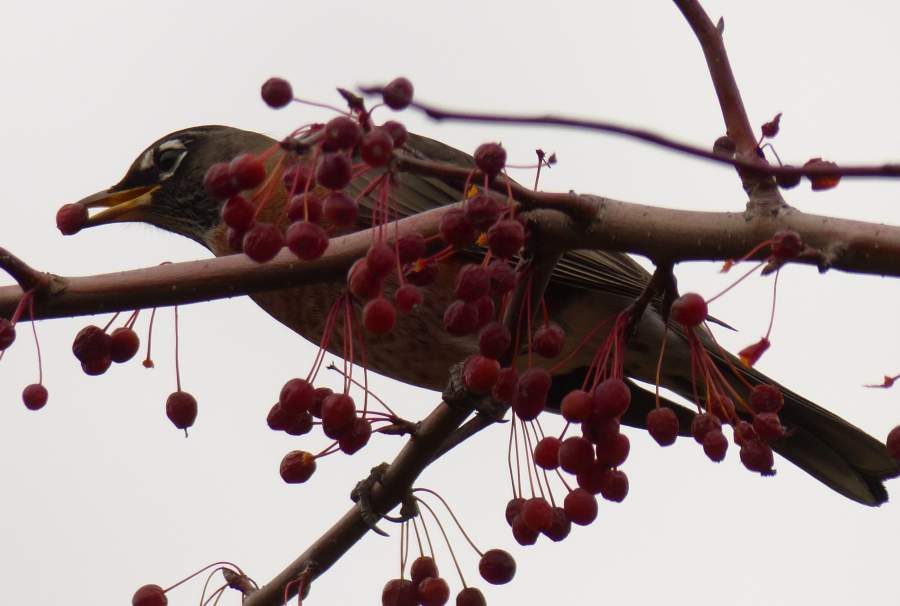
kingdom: Animalia
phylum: Chordata
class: Aves
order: Passeriformes
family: Turdidae
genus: Turdus
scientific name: Turdus migratorius
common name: American robin
